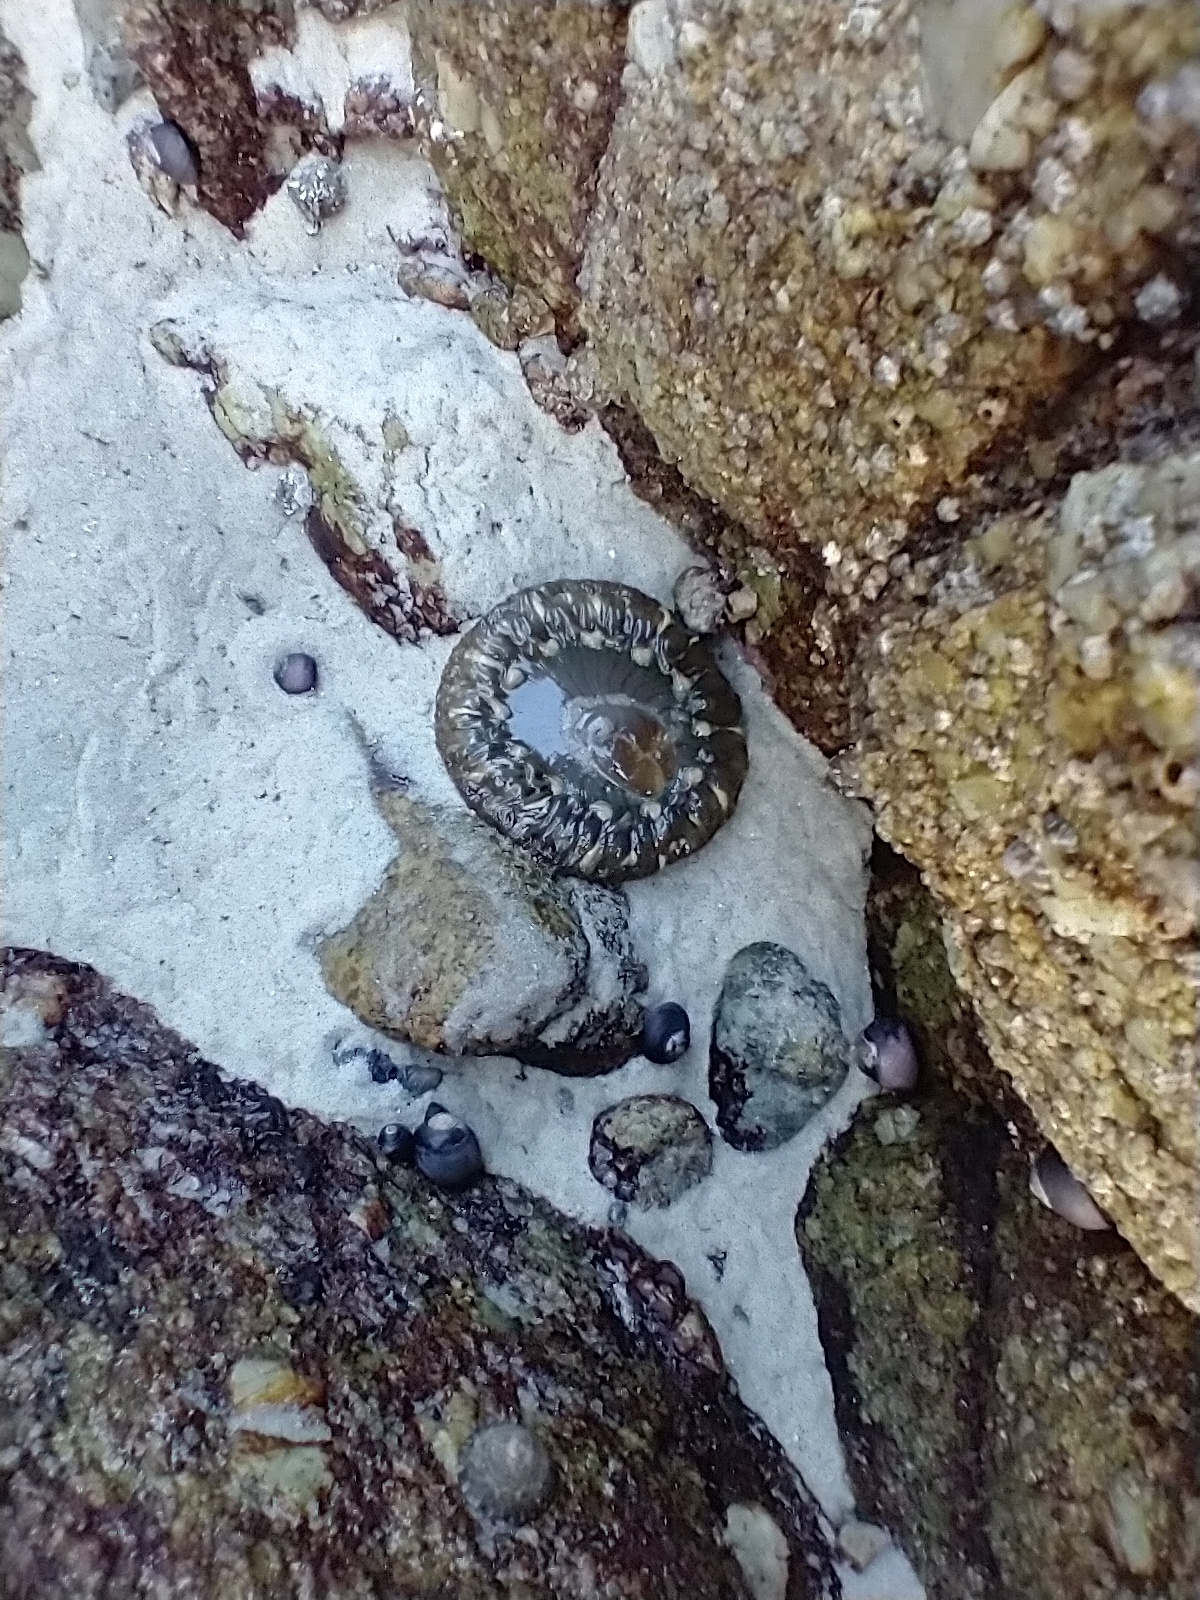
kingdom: Animalia
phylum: Cnidaria
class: Anthozoa
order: Actiniaria
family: Actiniidae
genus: Anthopleura
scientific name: Anthopleura sola
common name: Sun anemone
